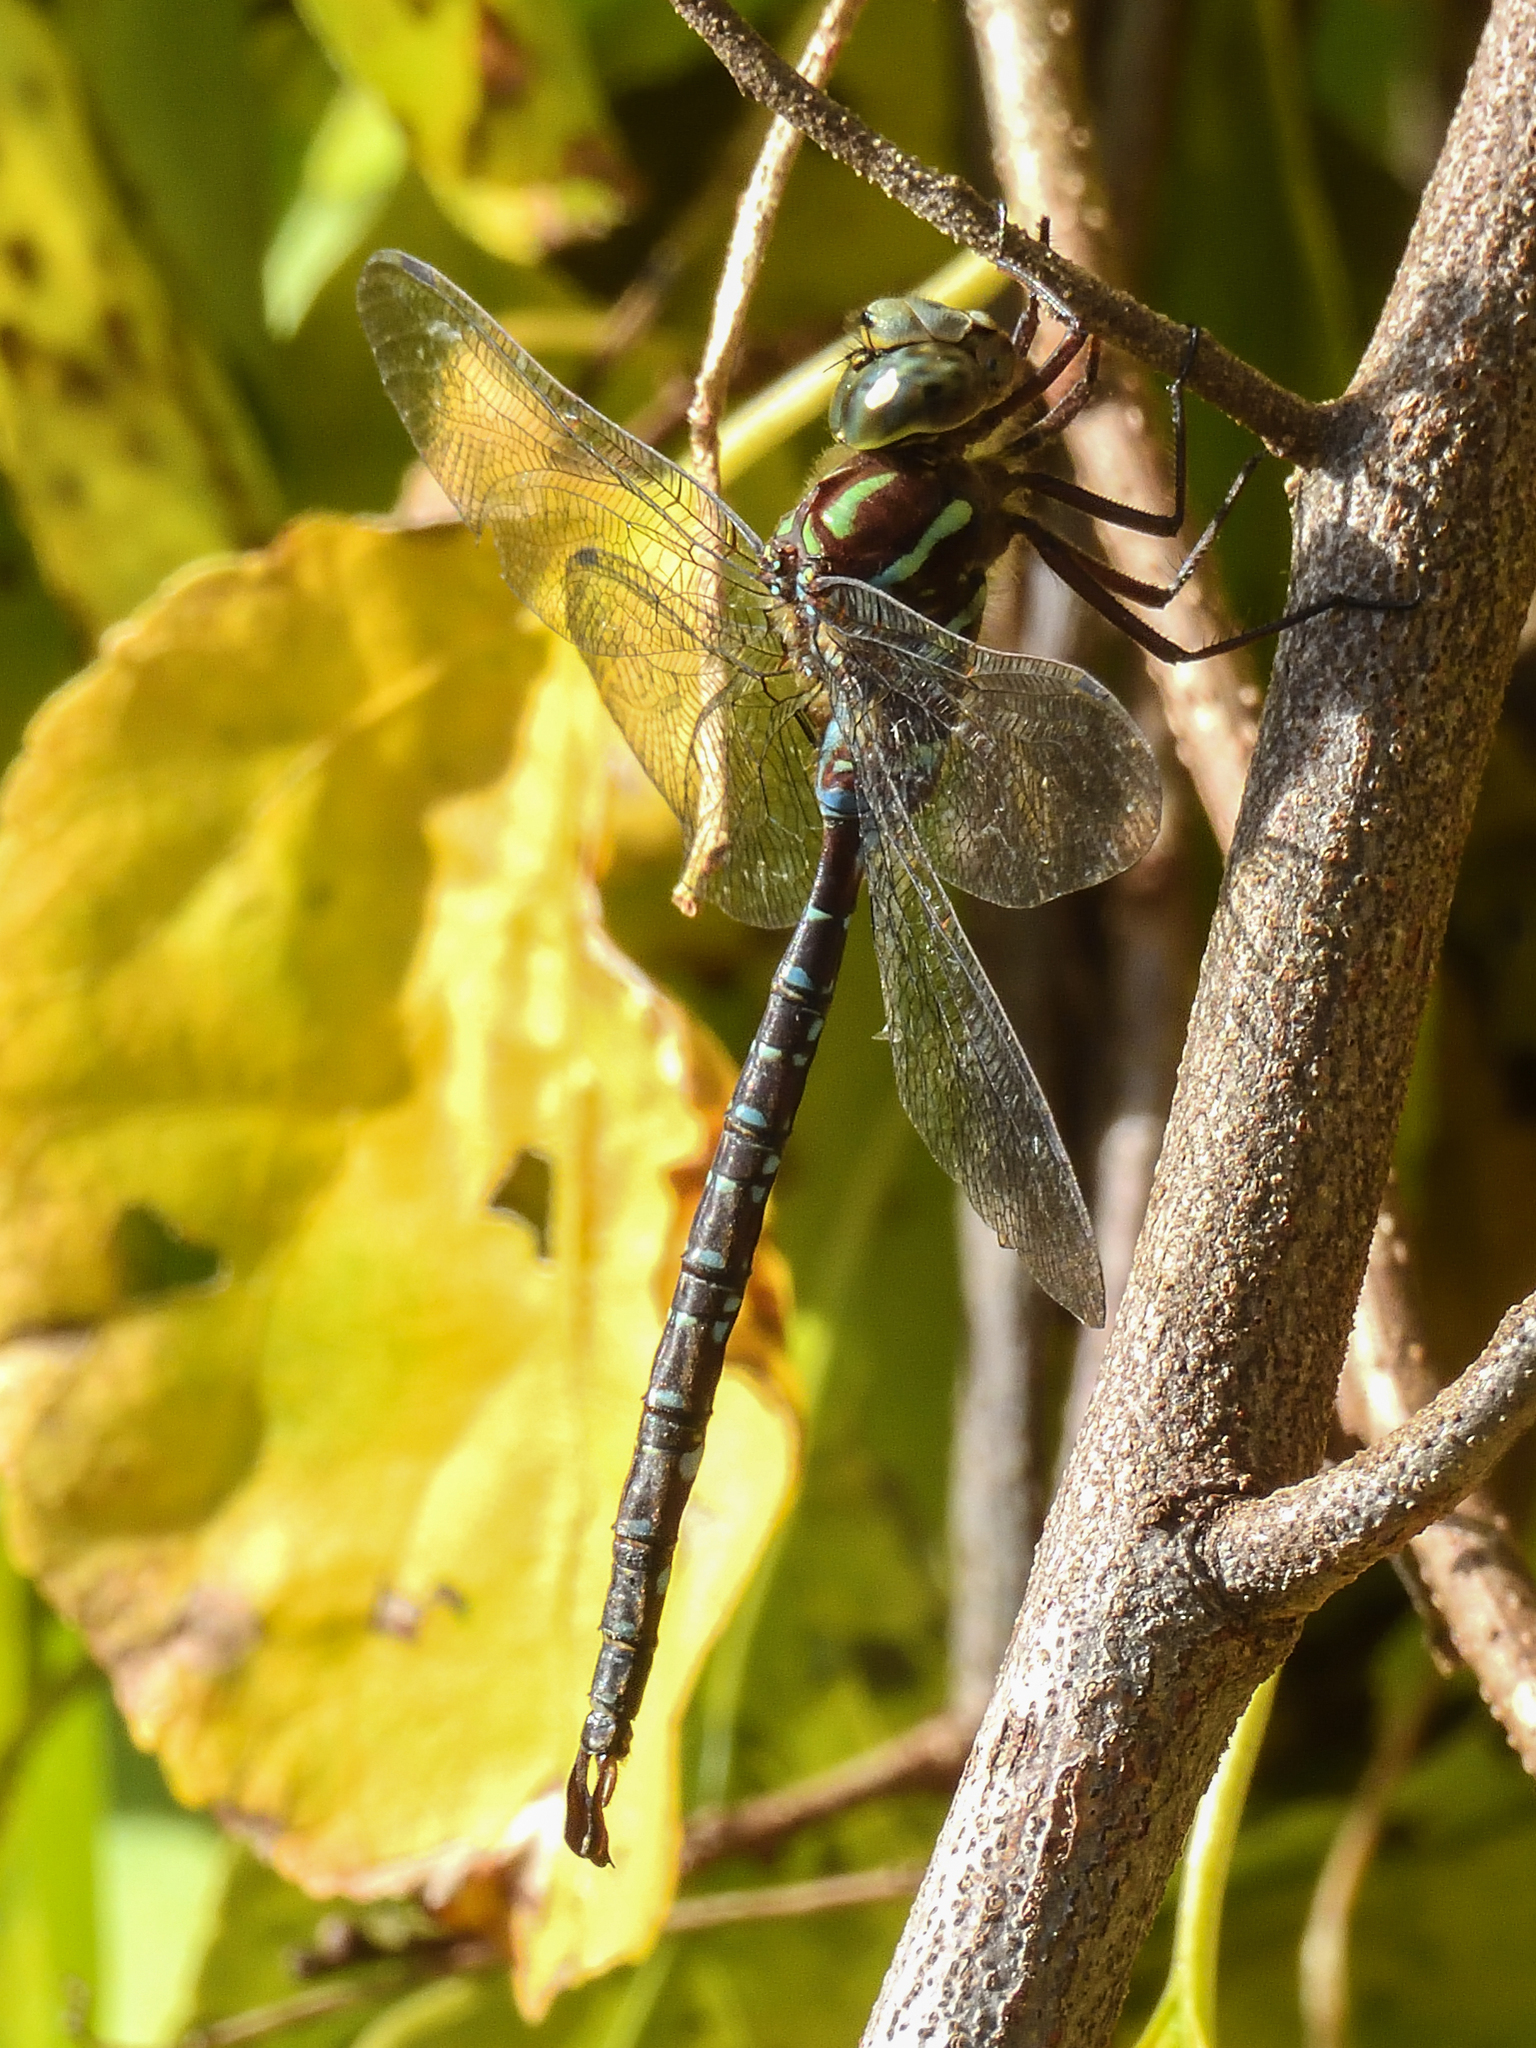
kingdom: Animalia
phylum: Arthropoda
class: Insecta
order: Odonata
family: Aeshnidae
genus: Aeshna
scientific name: Aeshna umbrosa
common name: Shadow darner
